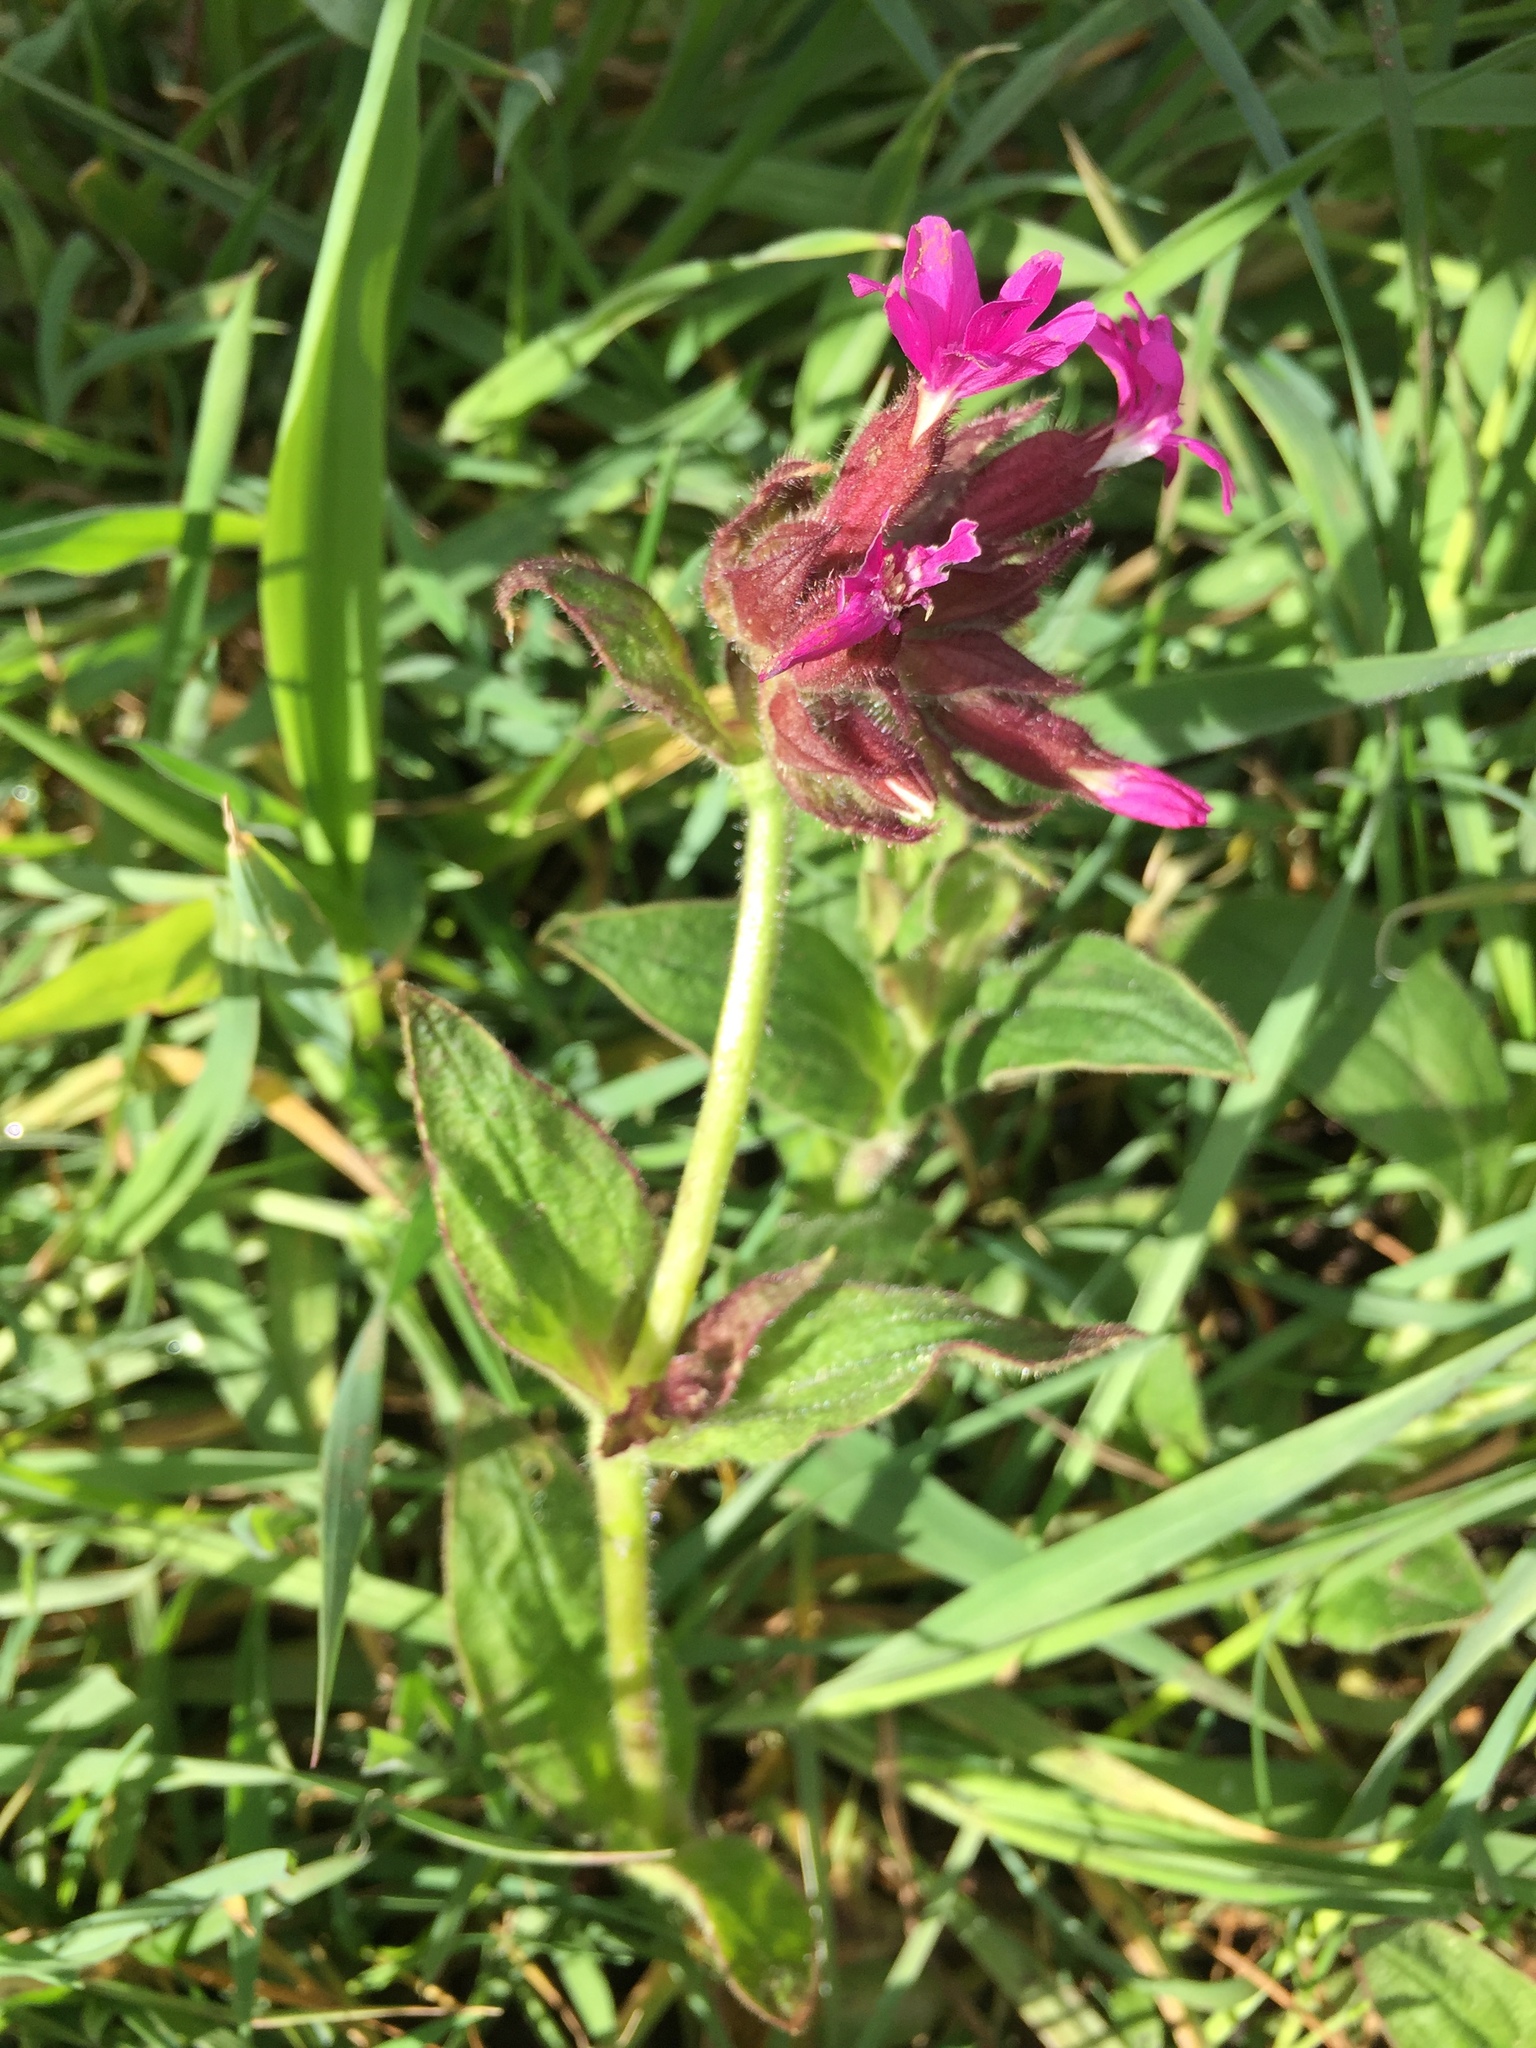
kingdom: Plantae
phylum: Tracheophyta
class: Magnoliopsida
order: Caryophyllales
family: Caryophyllaceae
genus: Silene
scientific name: Silene dioica
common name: Red campion
